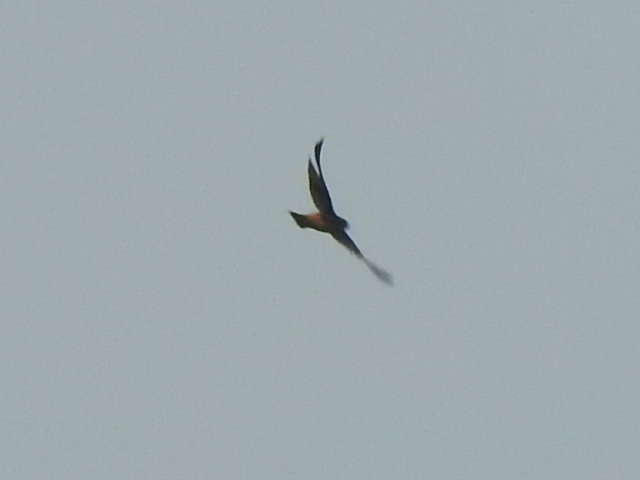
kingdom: Animalia
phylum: Chordata
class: Aves
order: Passeriformes
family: Hirundinidae
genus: Tachycineta
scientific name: Tachycineta bicolor
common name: Tree swallow
